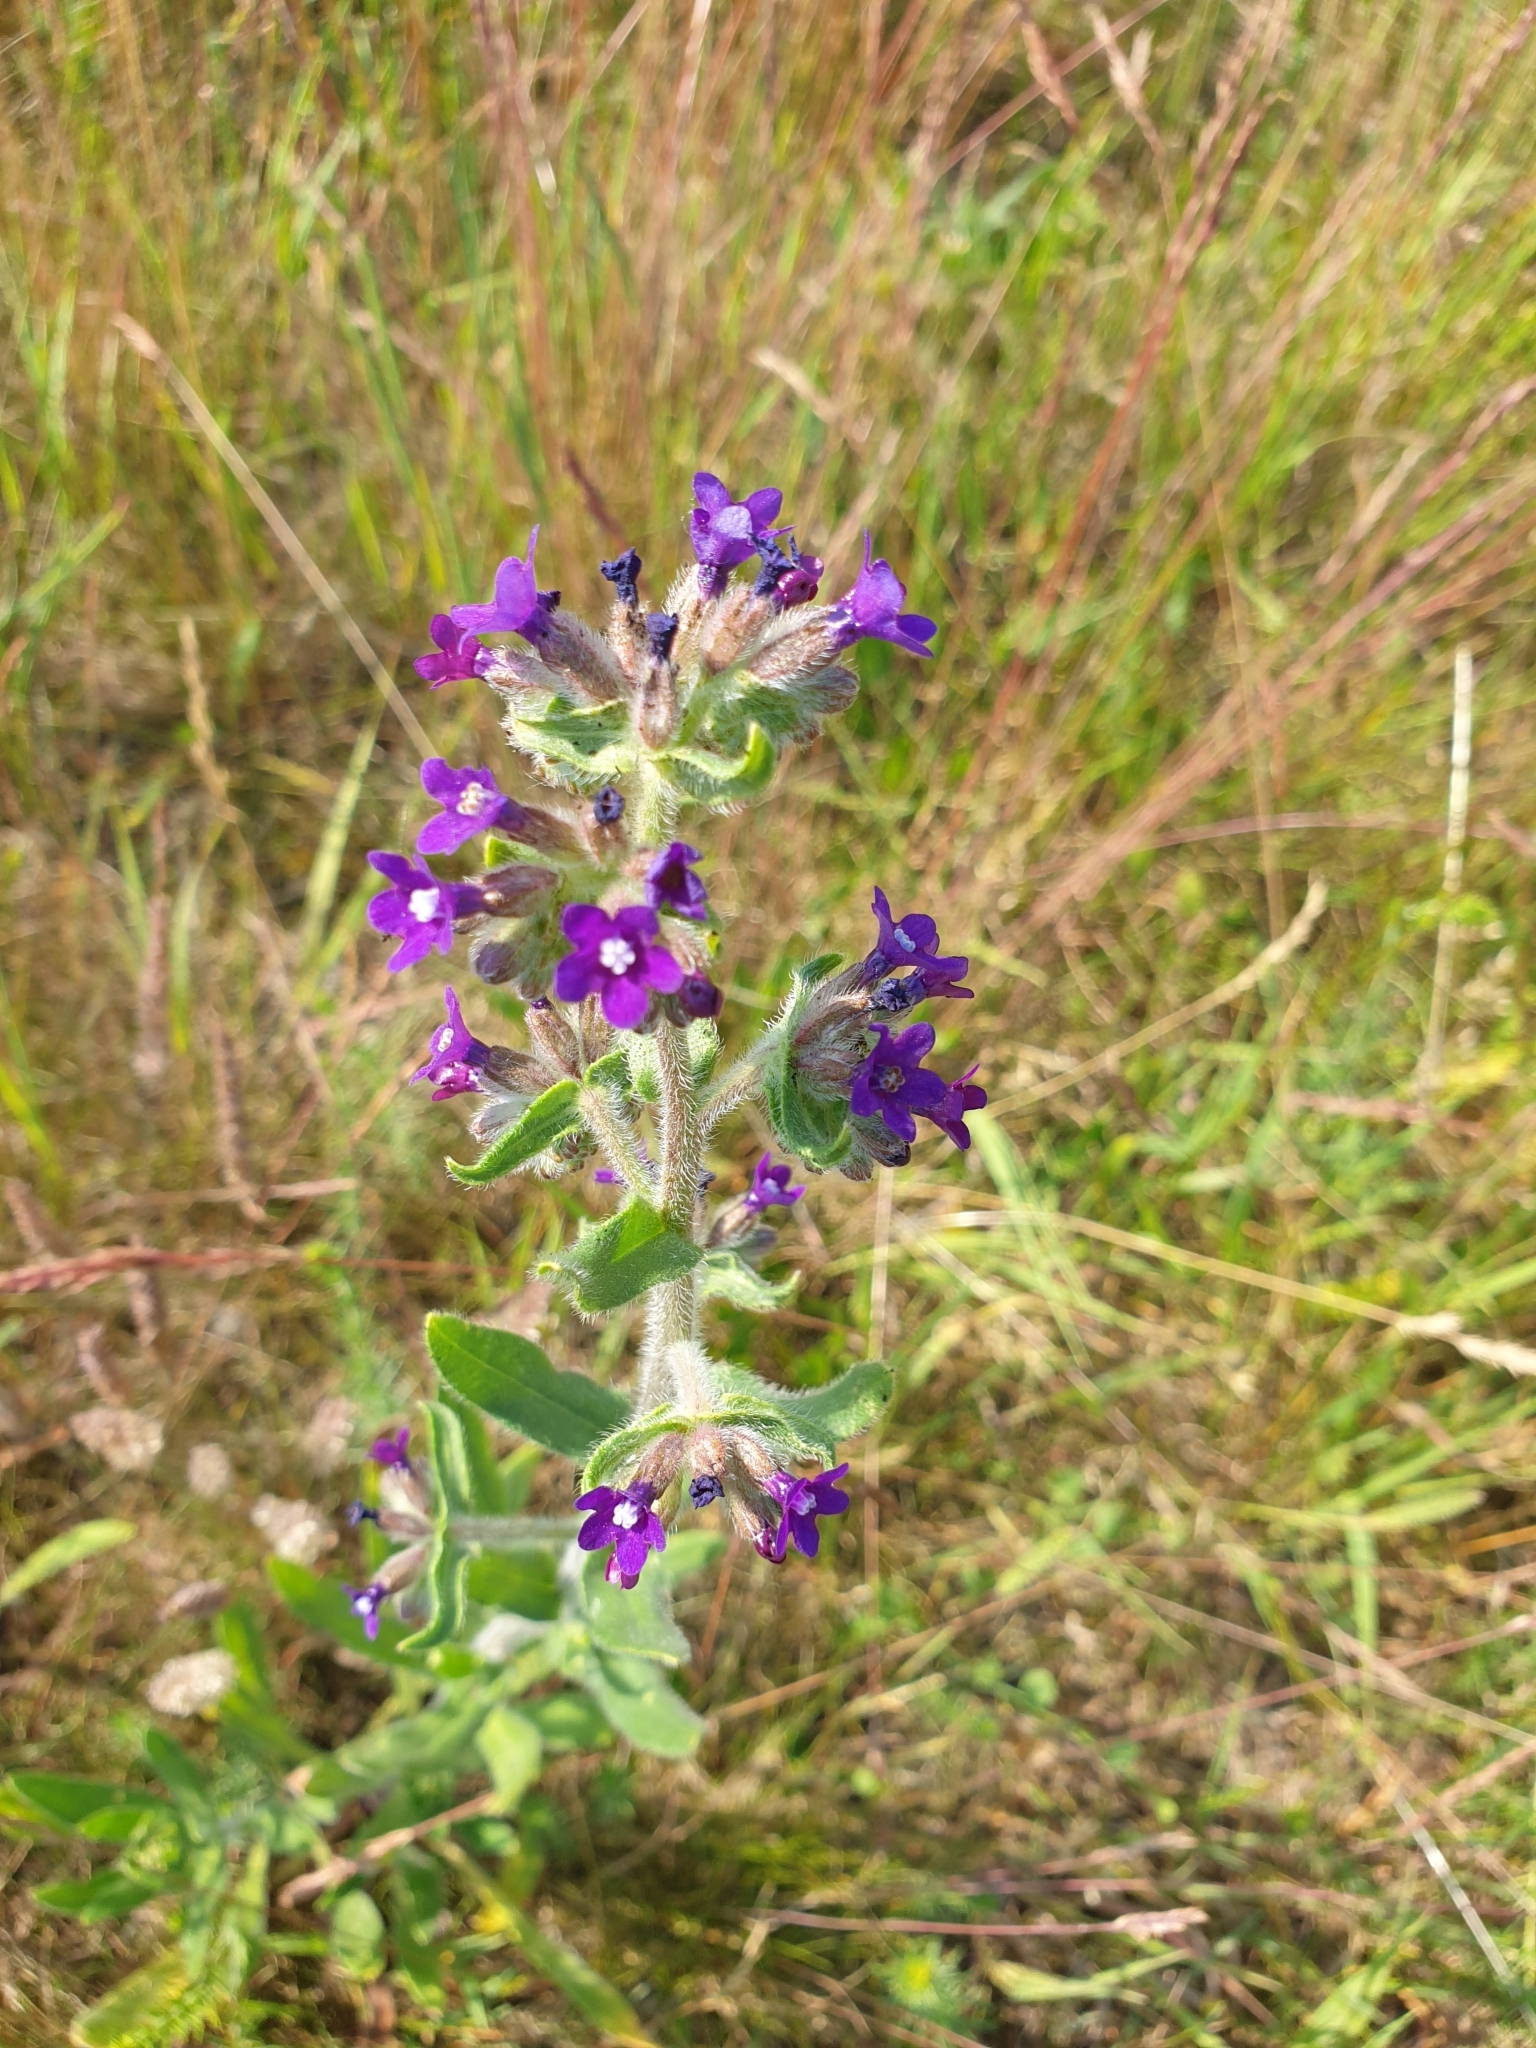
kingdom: Plantae
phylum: Tracheophyta
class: Magnoliopsida
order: Boraginales
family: Boraginaceae
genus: Anchusa
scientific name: Anchusa officinalis
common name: Alkanet
